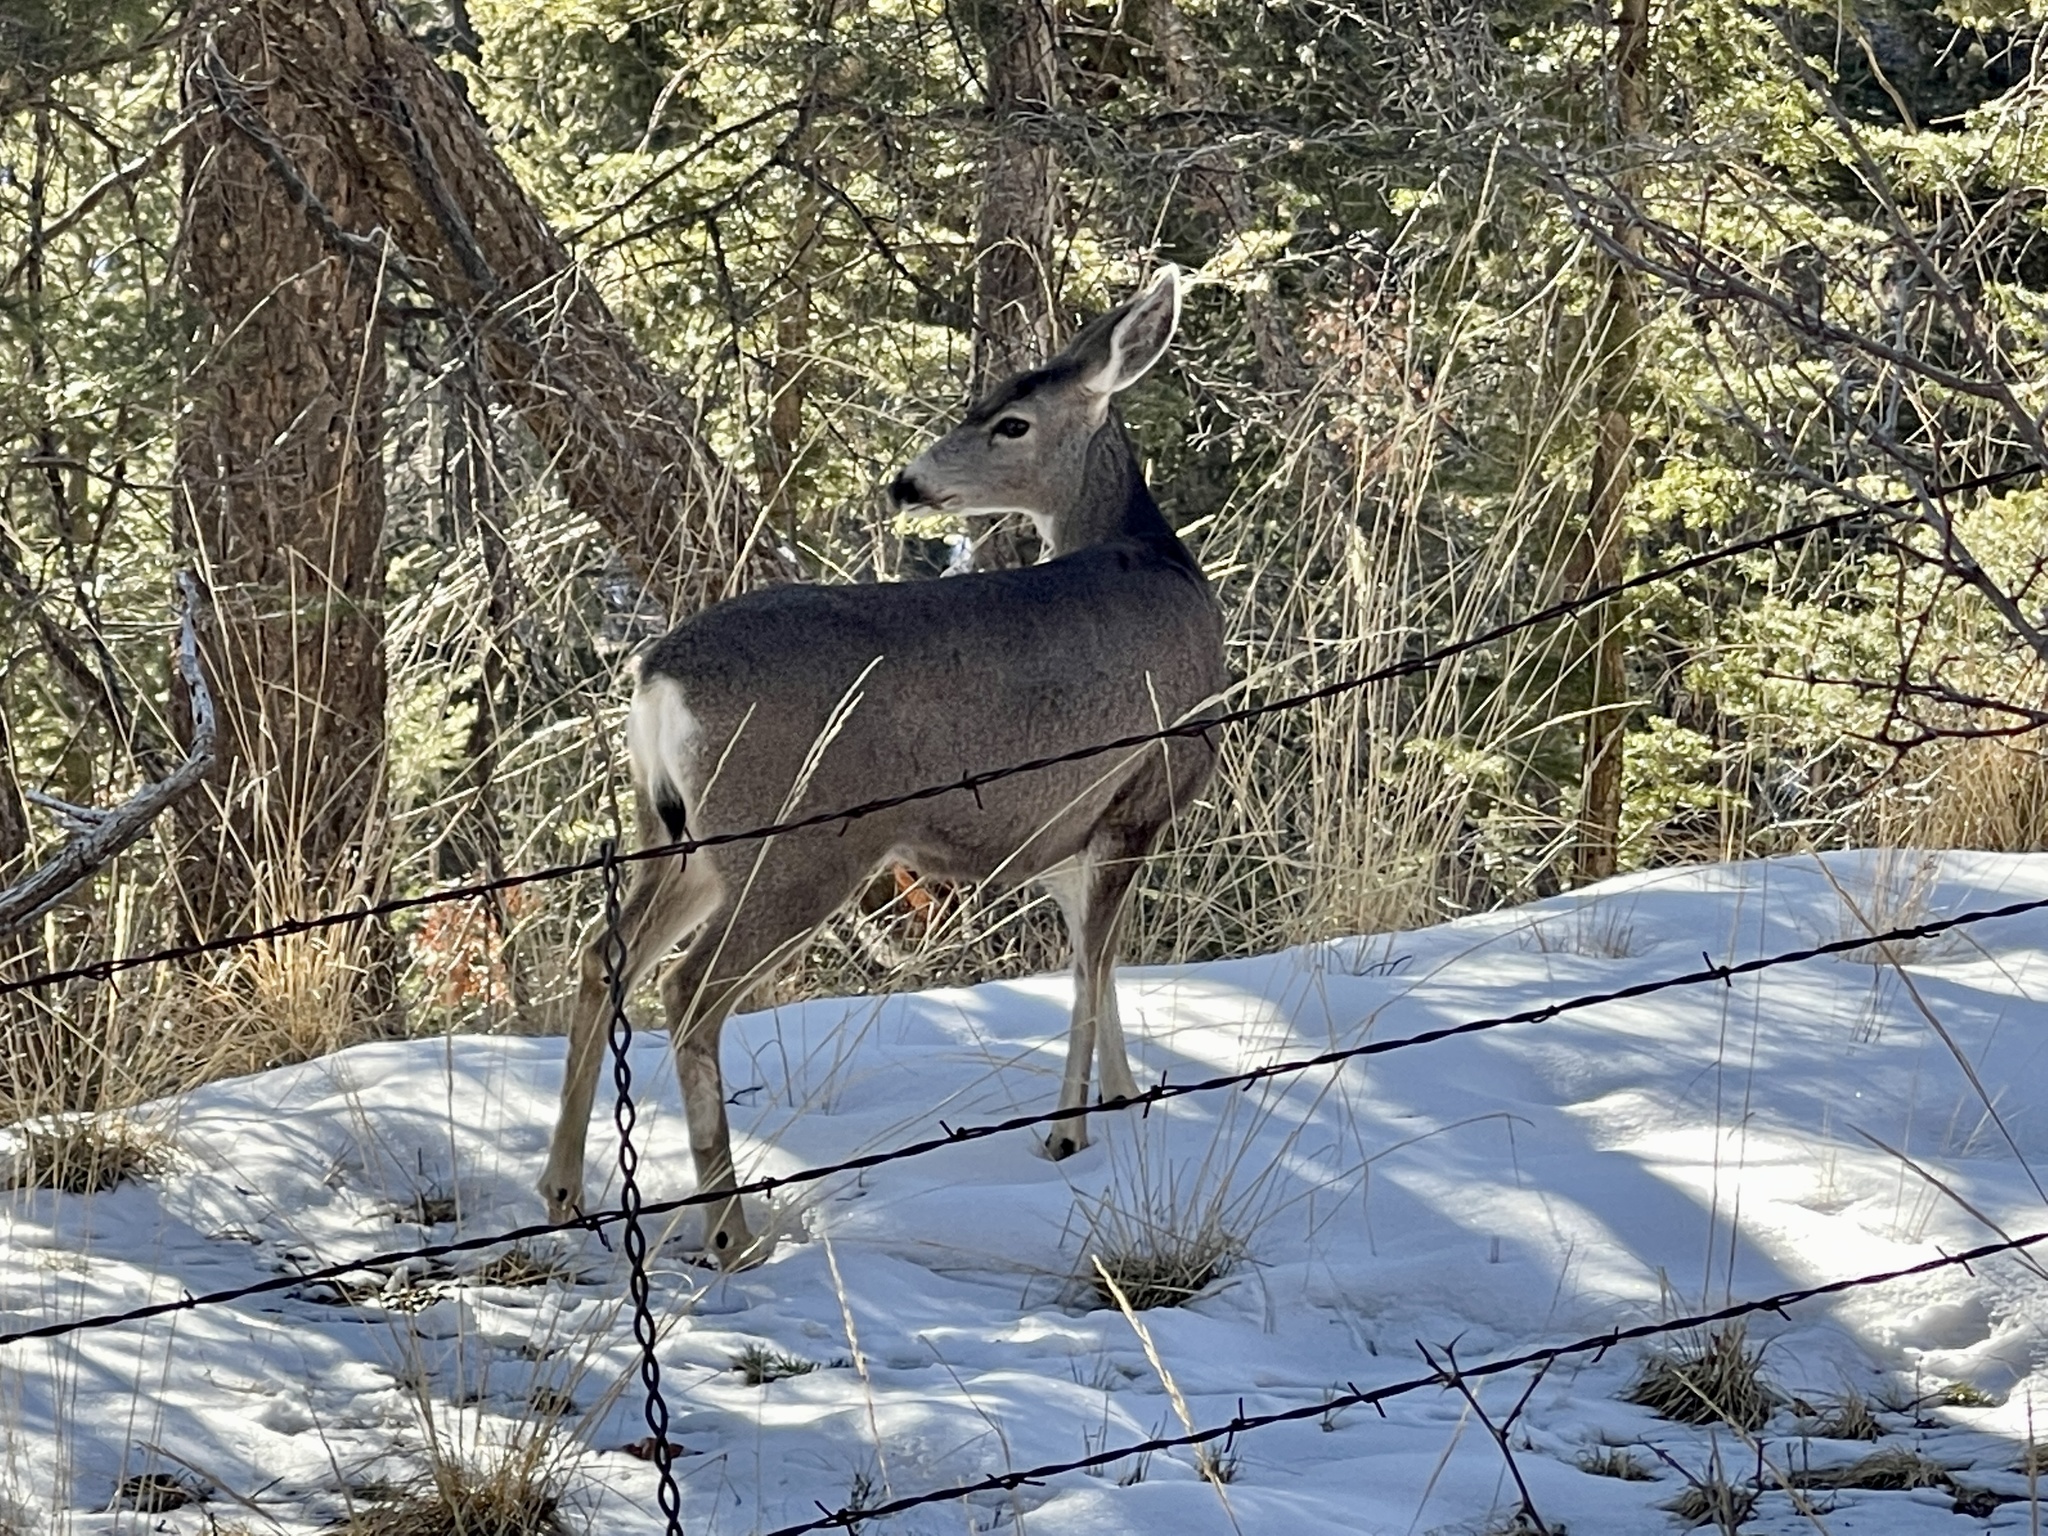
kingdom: Animalia
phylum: Chordata
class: Mammalia
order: Artiodactyla
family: Cervidae
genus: Odocoileus
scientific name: Odocoileus hemionus
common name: Mule deer
